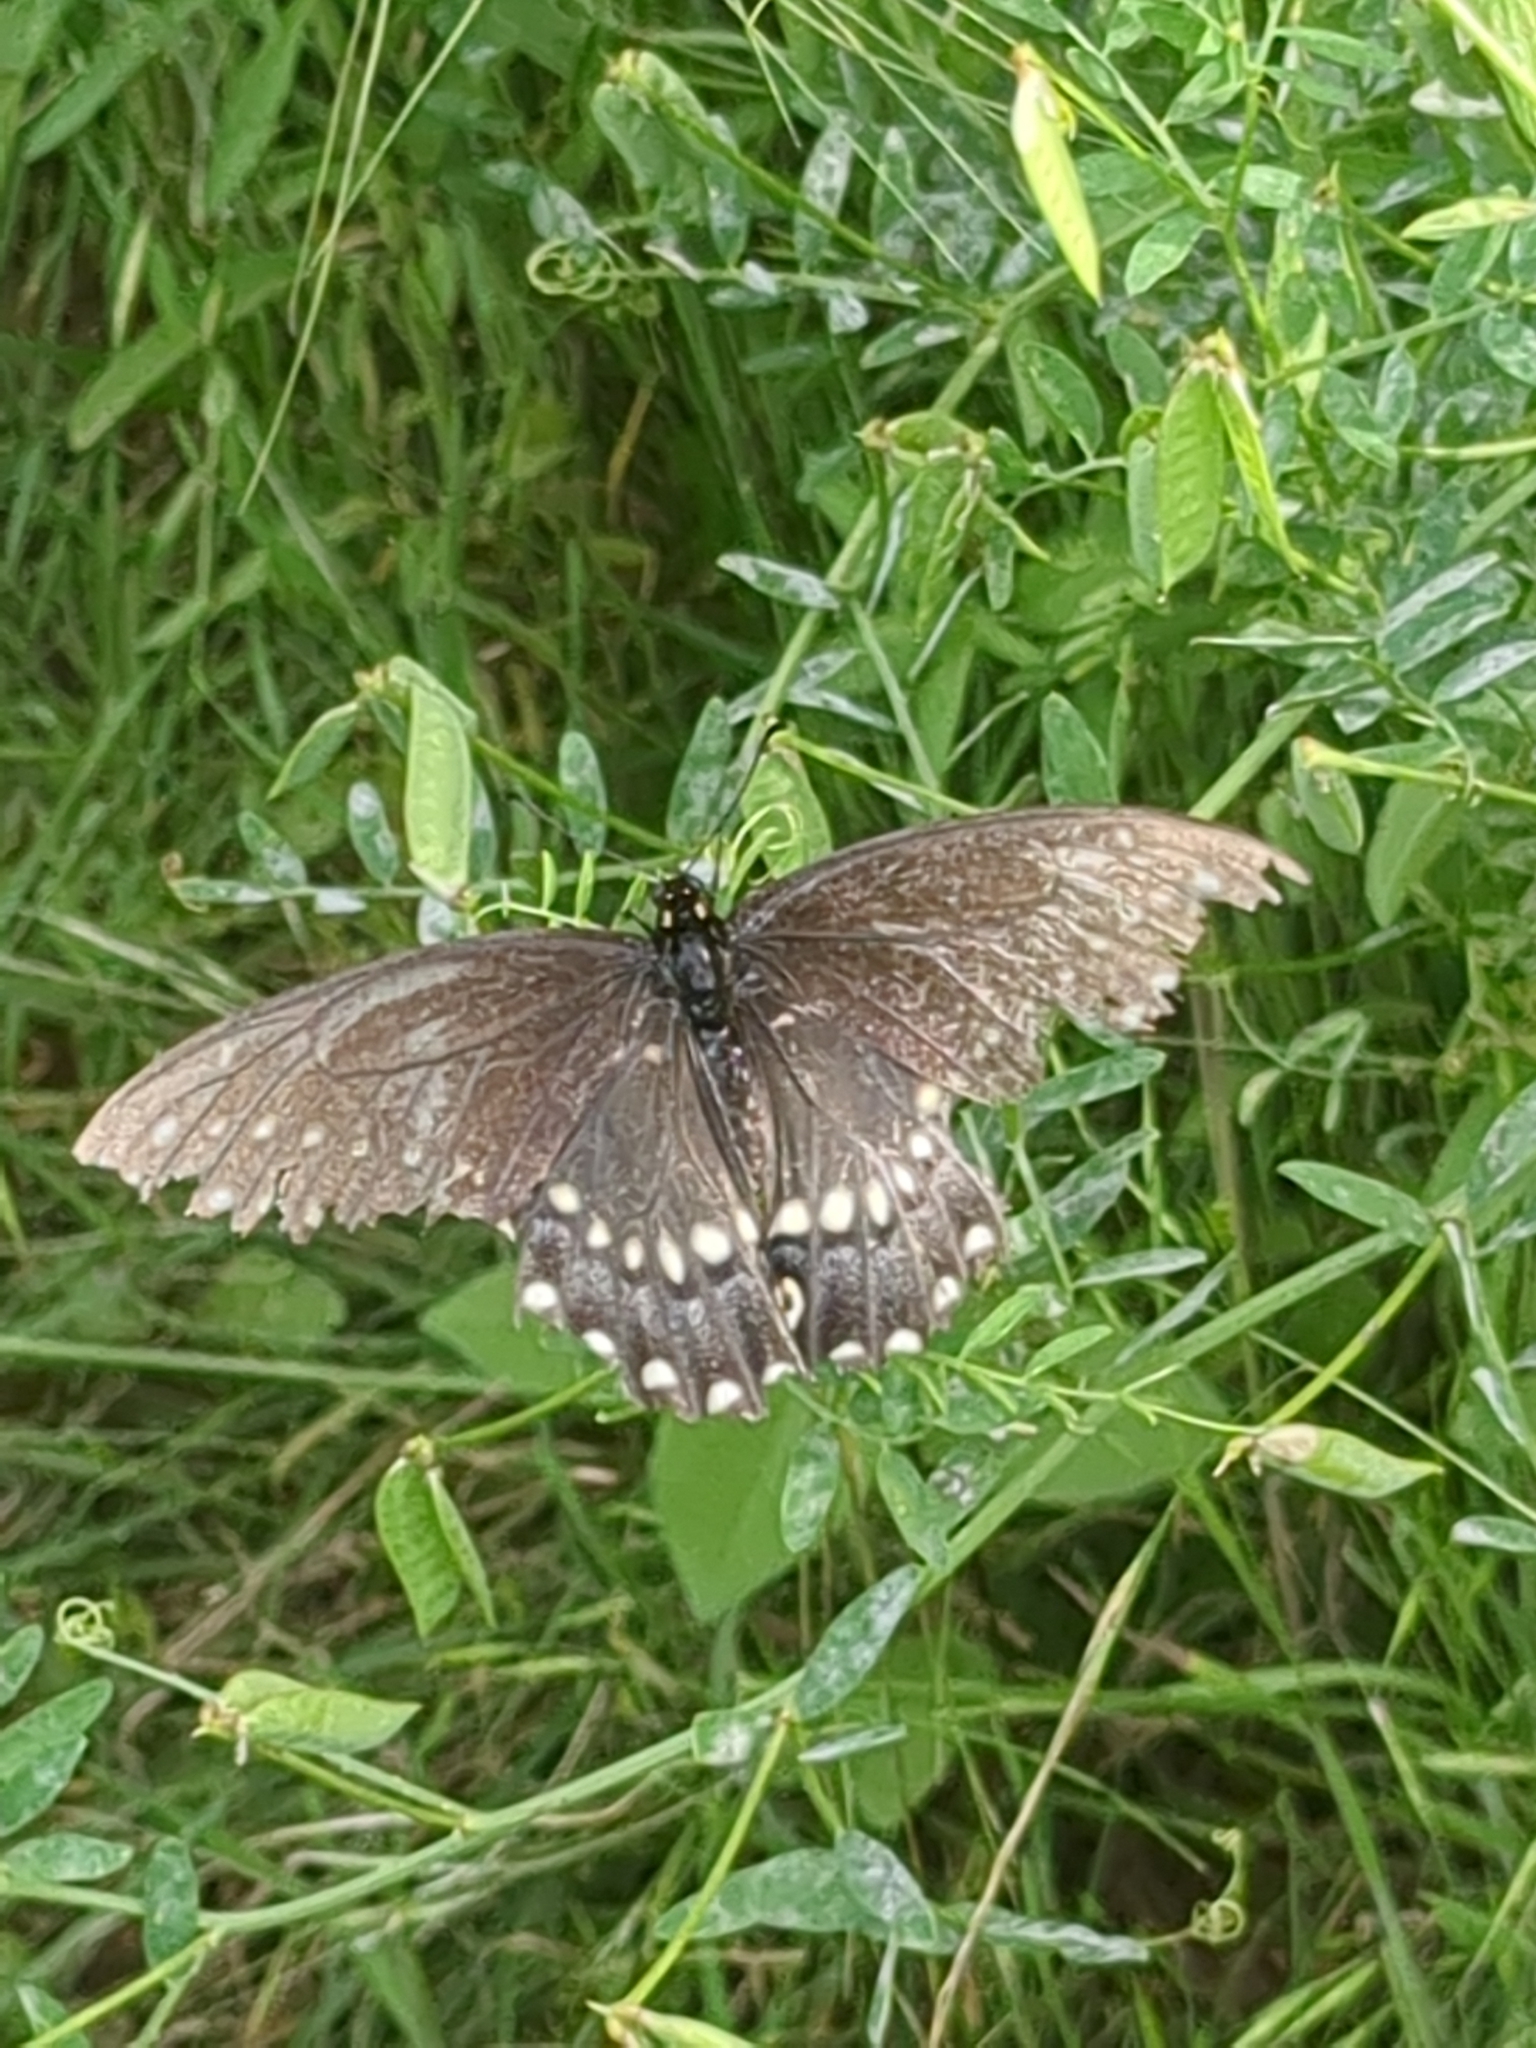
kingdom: Animalia
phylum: Arthropoda
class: Insecta
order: Lepidoptera
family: Papilionidae
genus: Papilio
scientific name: Papilio polyxenes
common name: Black swallowtail
